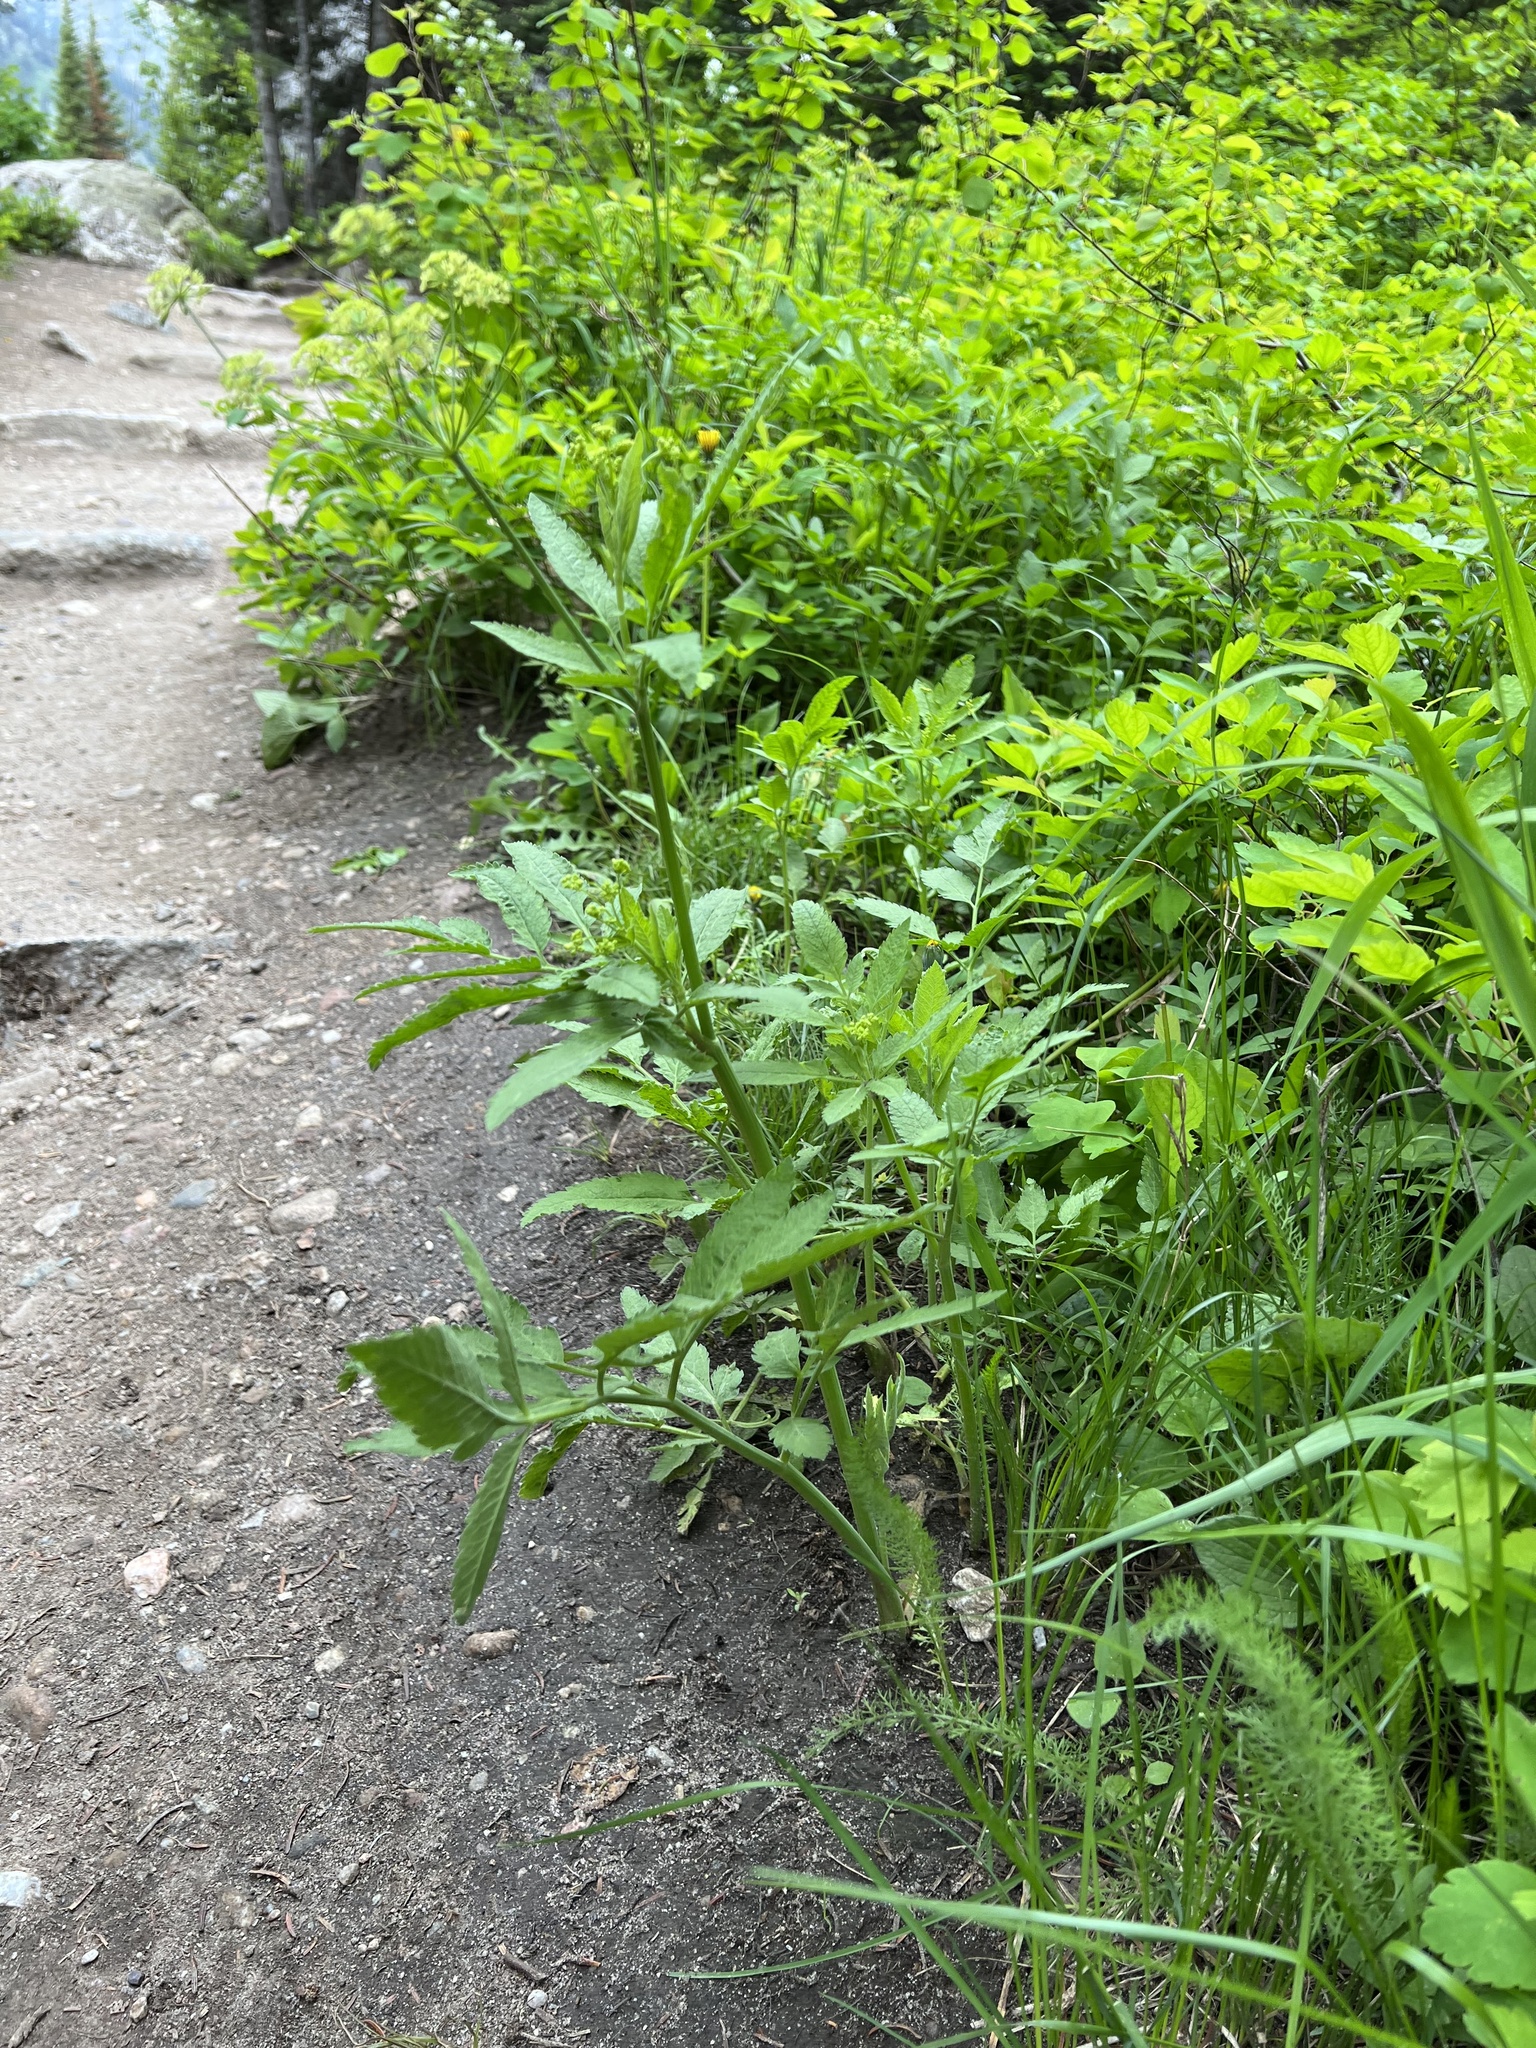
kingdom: Plantae
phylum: Tracheophyta
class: Magnoliopsida
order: Apiales
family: Apiaceae
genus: Osmorhiza
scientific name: Osmorhiza occidentalis
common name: Western sweet cicely
